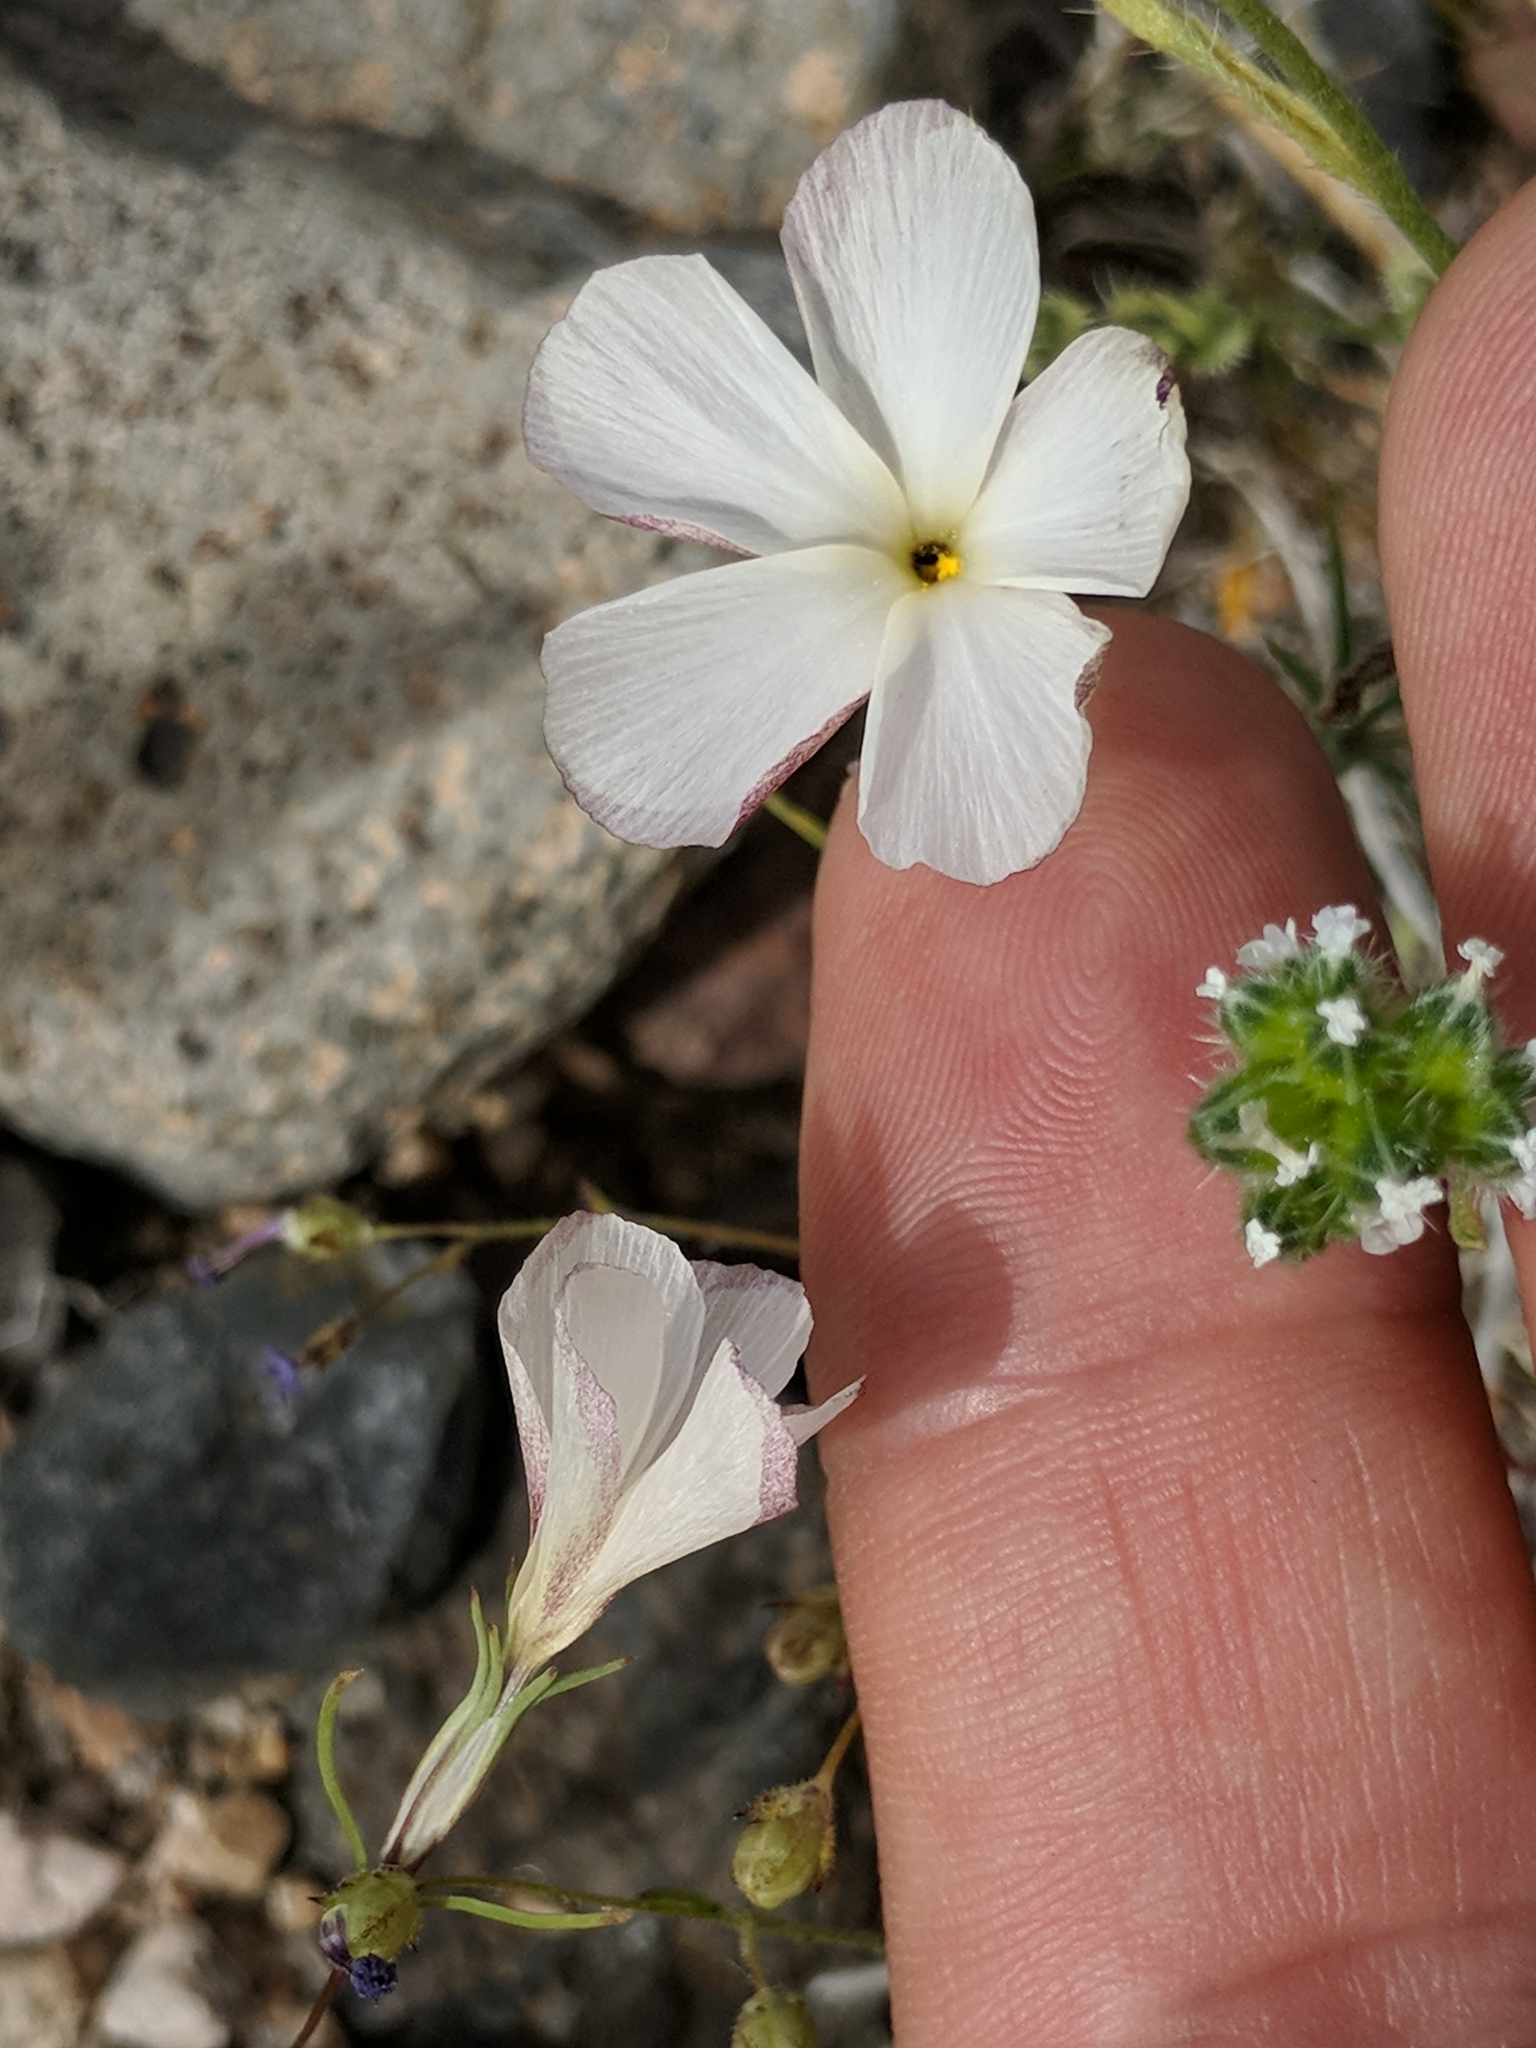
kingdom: Plantae
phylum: Tracheophyta
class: Magnoliopsida
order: Ericales
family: Polemoniaceae
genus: Linanthus
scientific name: Linanthus dichotomus
